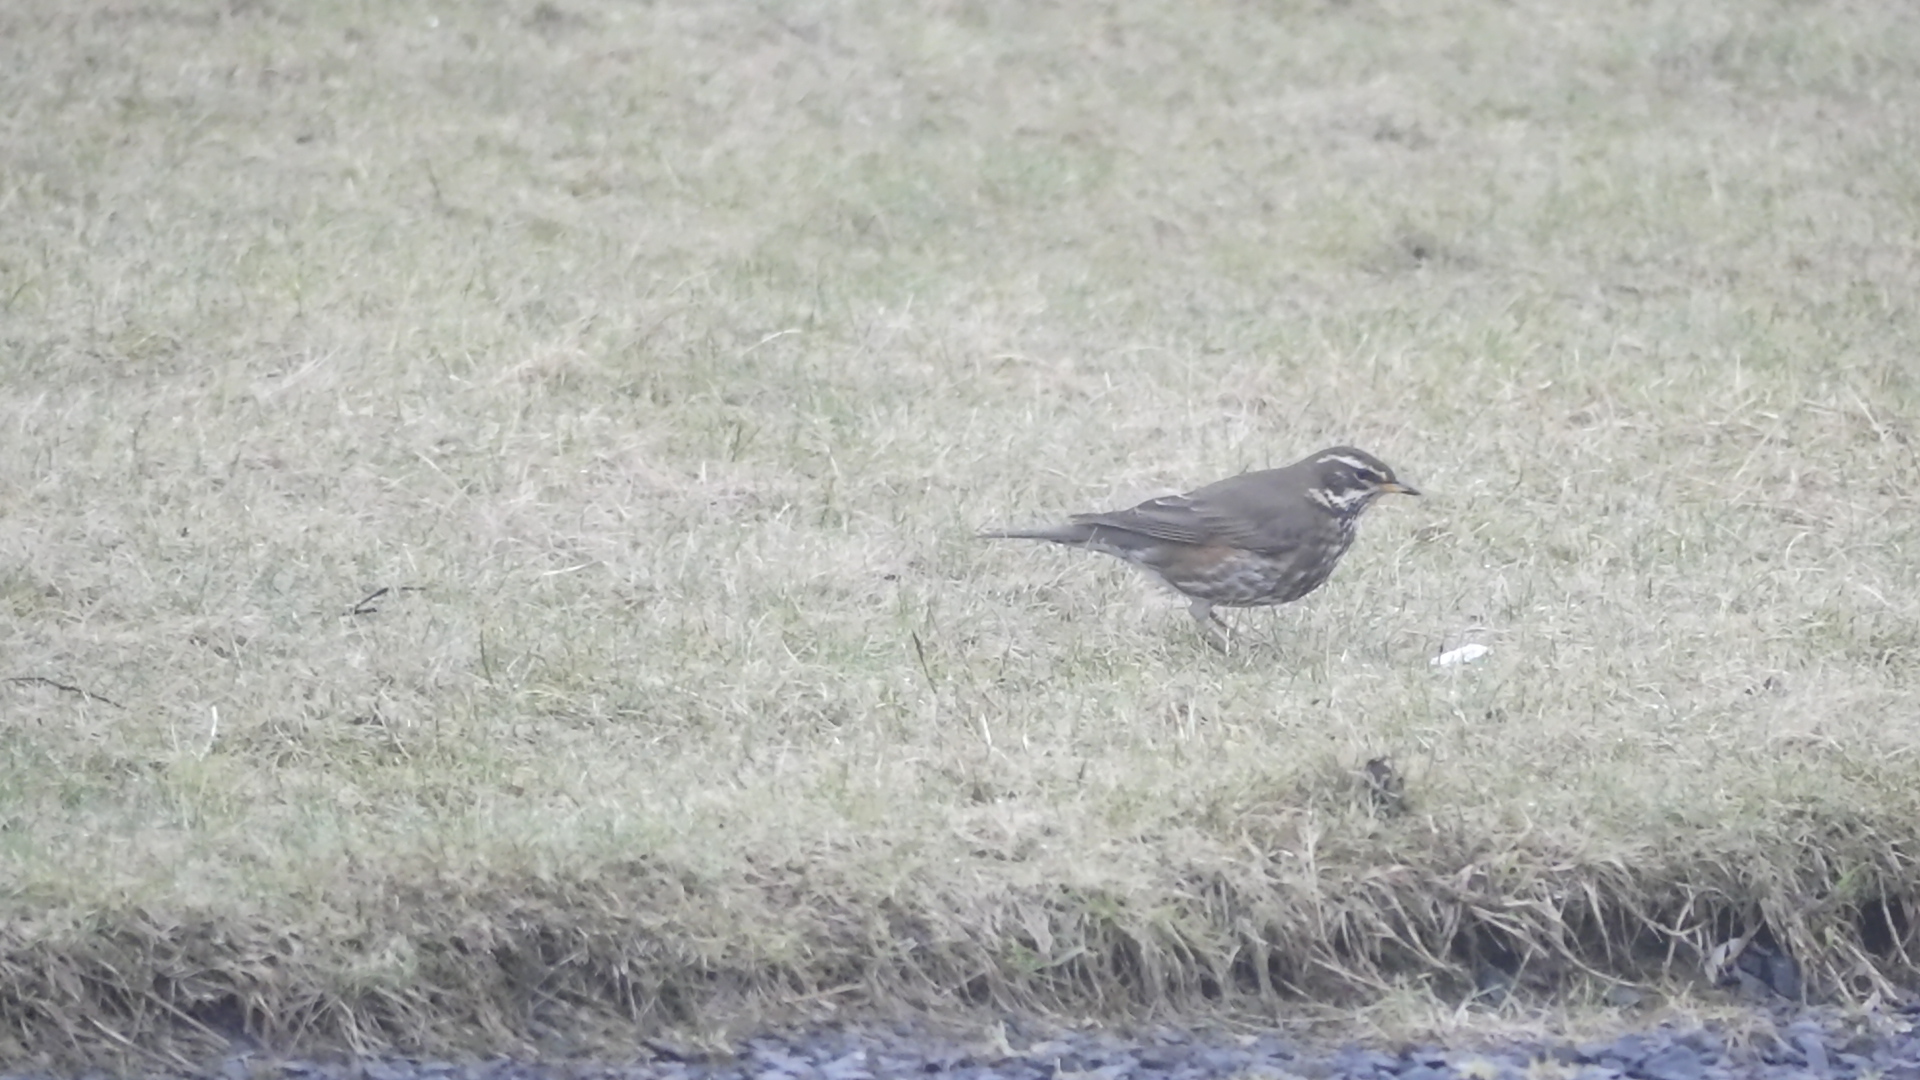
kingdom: Animalia
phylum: Chordata
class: Aves
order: Passeriformes
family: Turdidae
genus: Turdus
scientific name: Turdus iliacus
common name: Redwing
